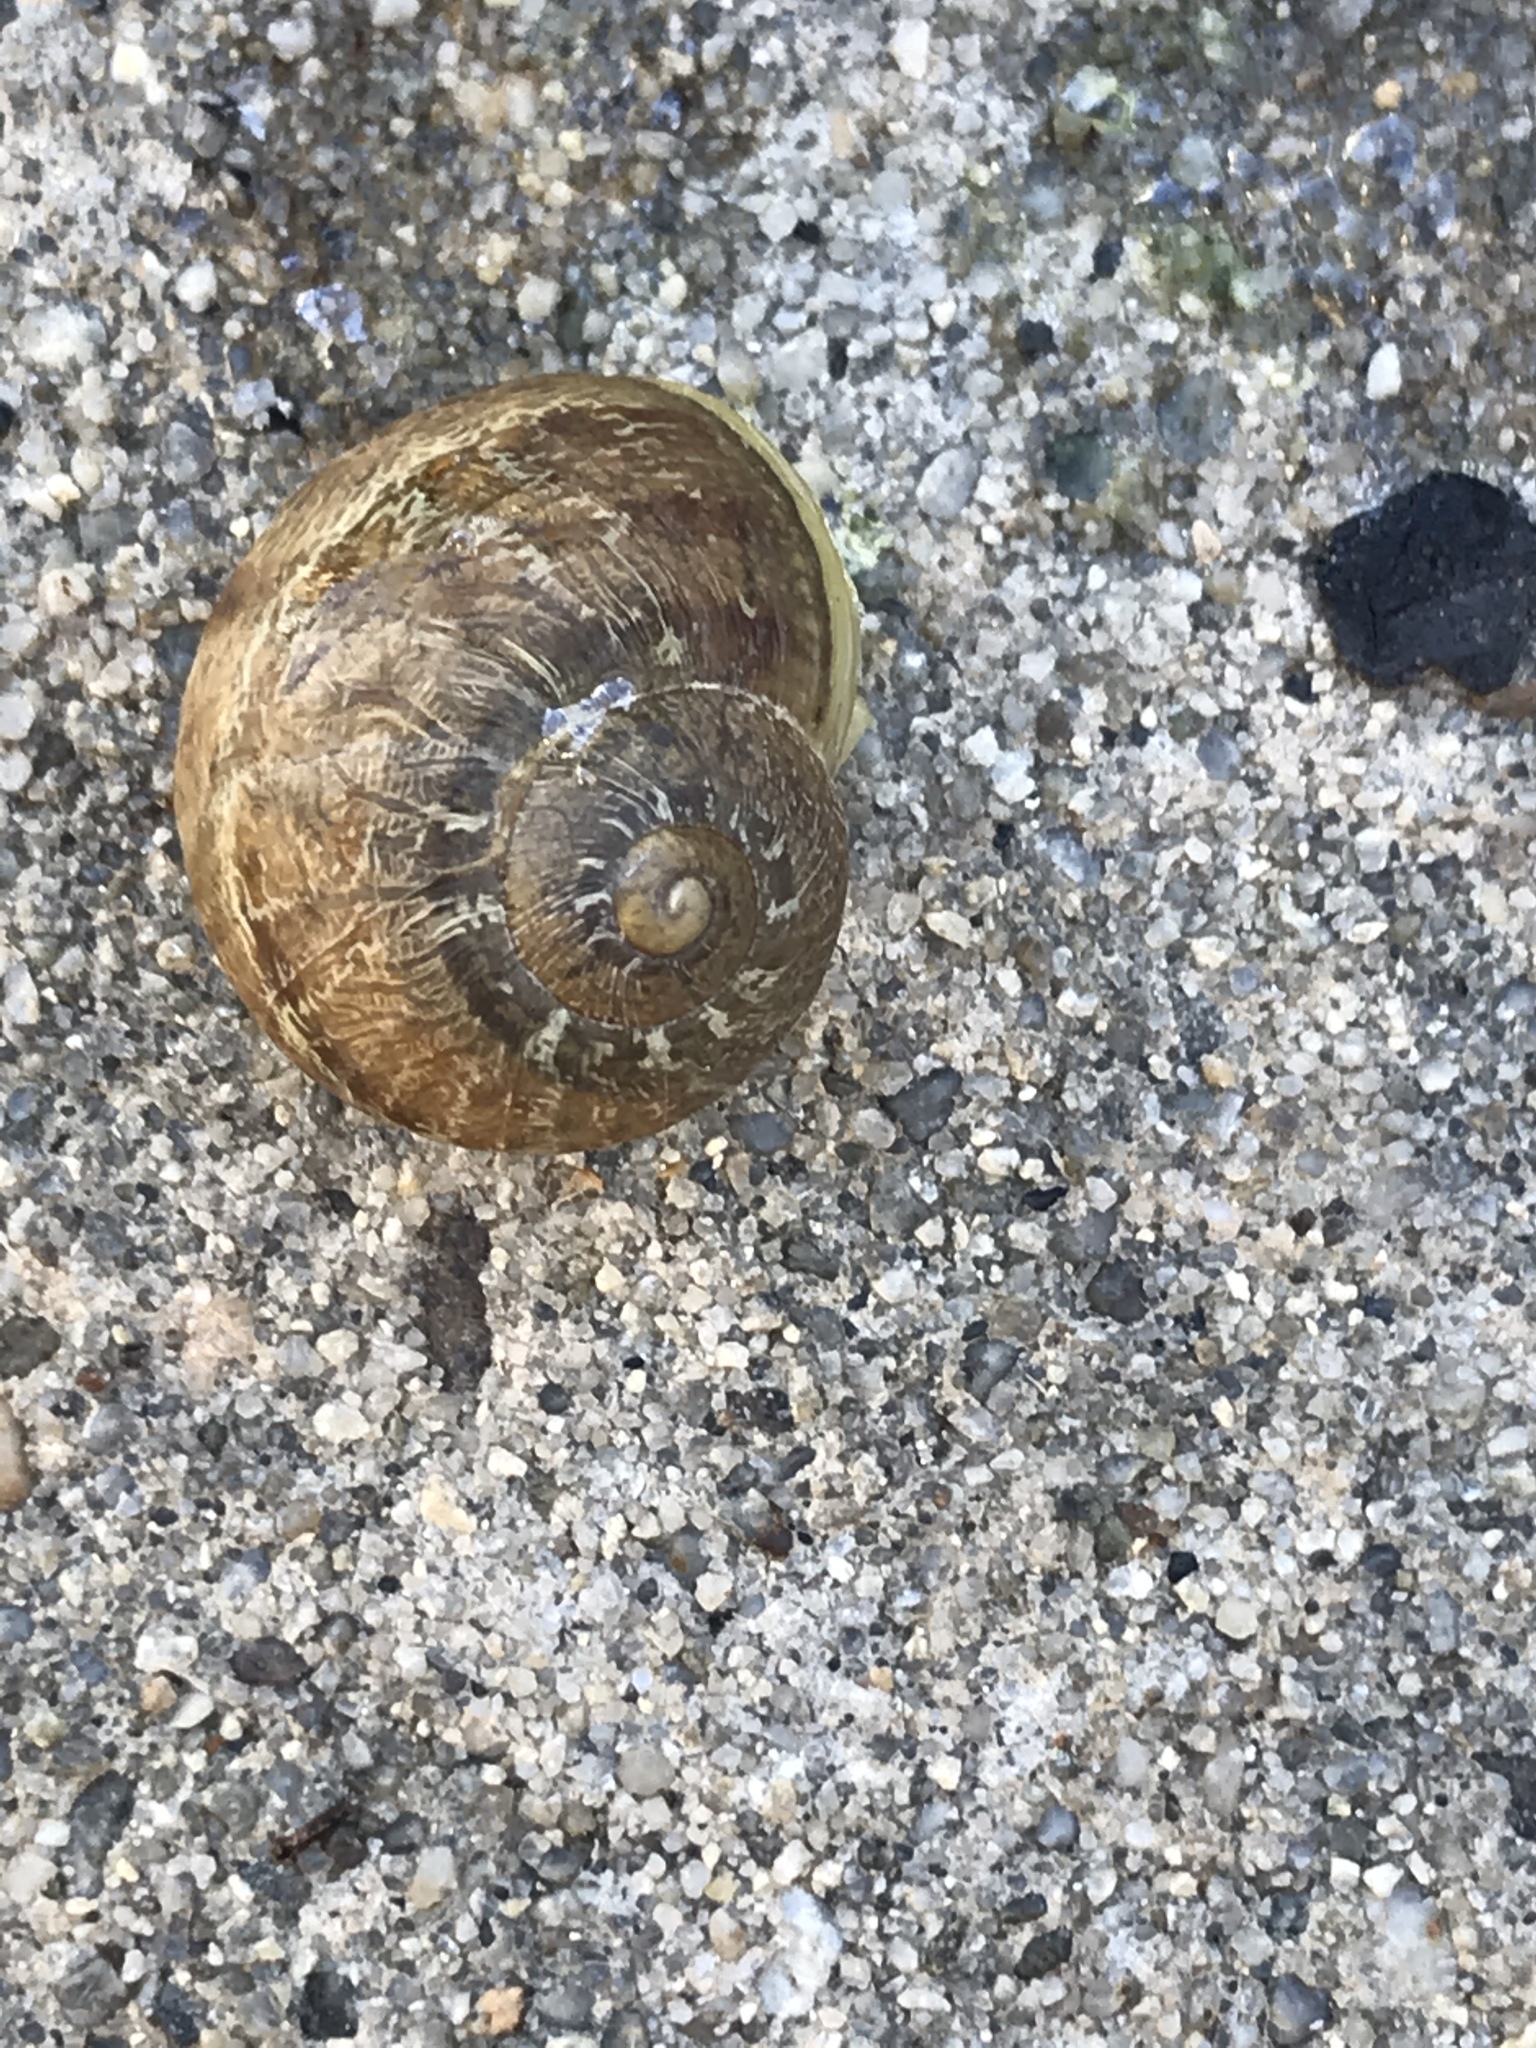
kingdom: Animalia
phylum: Mollusca
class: Gastropoda
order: Stylommatophora
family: Helicidae
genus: Cornu
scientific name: Cornu aspersum
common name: Brown garden snail
